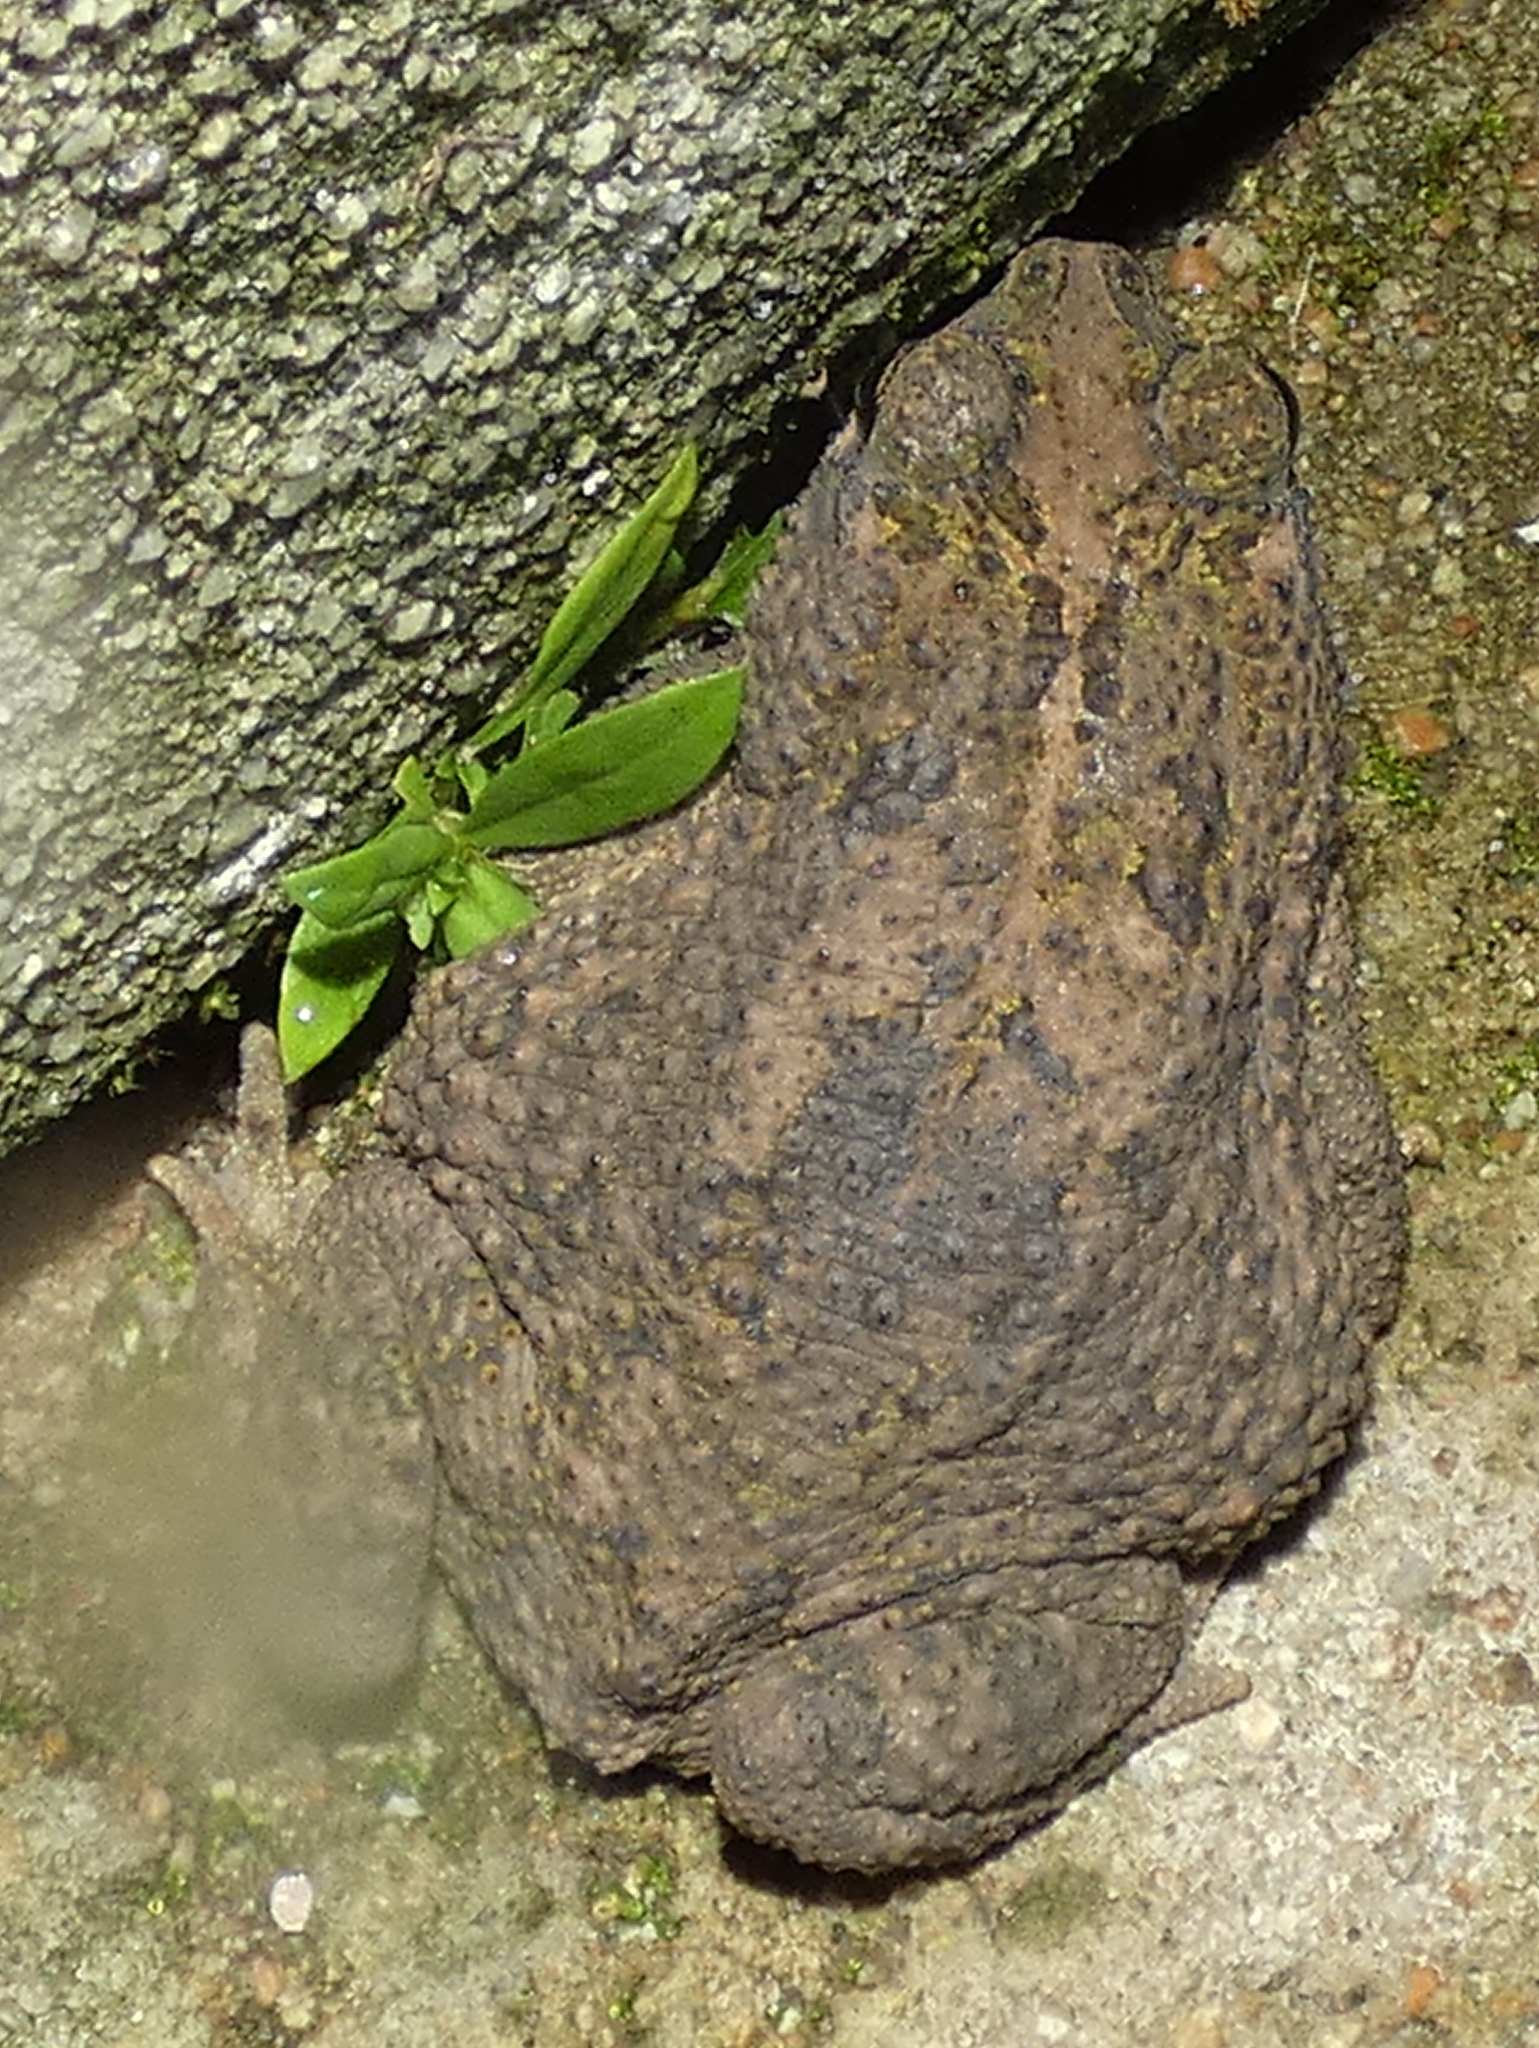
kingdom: Animalia
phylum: Chordata
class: Amphibia
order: Anura
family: Bufonidae
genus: Rhinella
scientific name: Rhinella granulosa
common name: Common lesser toad
